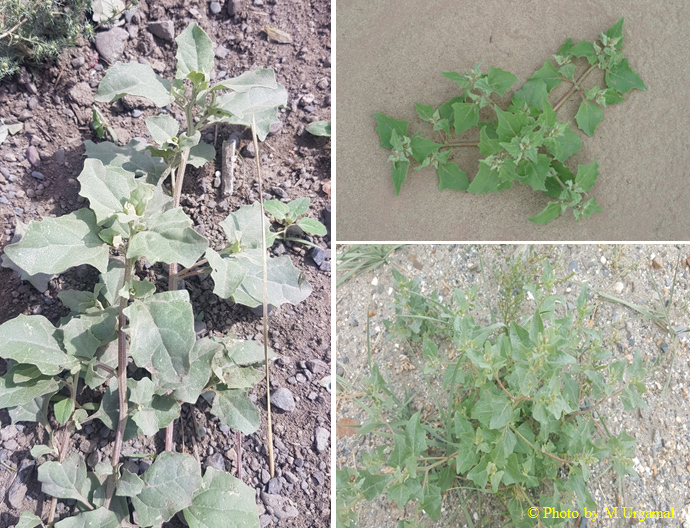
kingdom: Plantae
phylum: Tracheophyta
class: Magnoliopsida
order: Caryophyllales
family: Amaranthaceae
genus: Atriplex
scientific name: Atriplex sibirica
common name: Siberian saltbush
